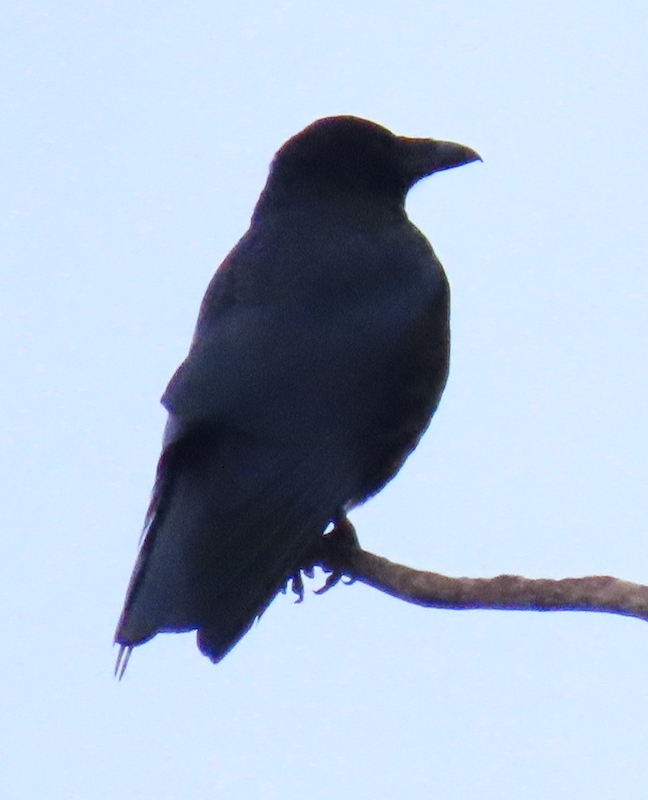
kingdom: Animalia
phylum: Chordata
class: Aves
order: Passeriformes
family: Corvidae
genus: Corvus
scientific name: Corvus corone
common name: Carrion crow
